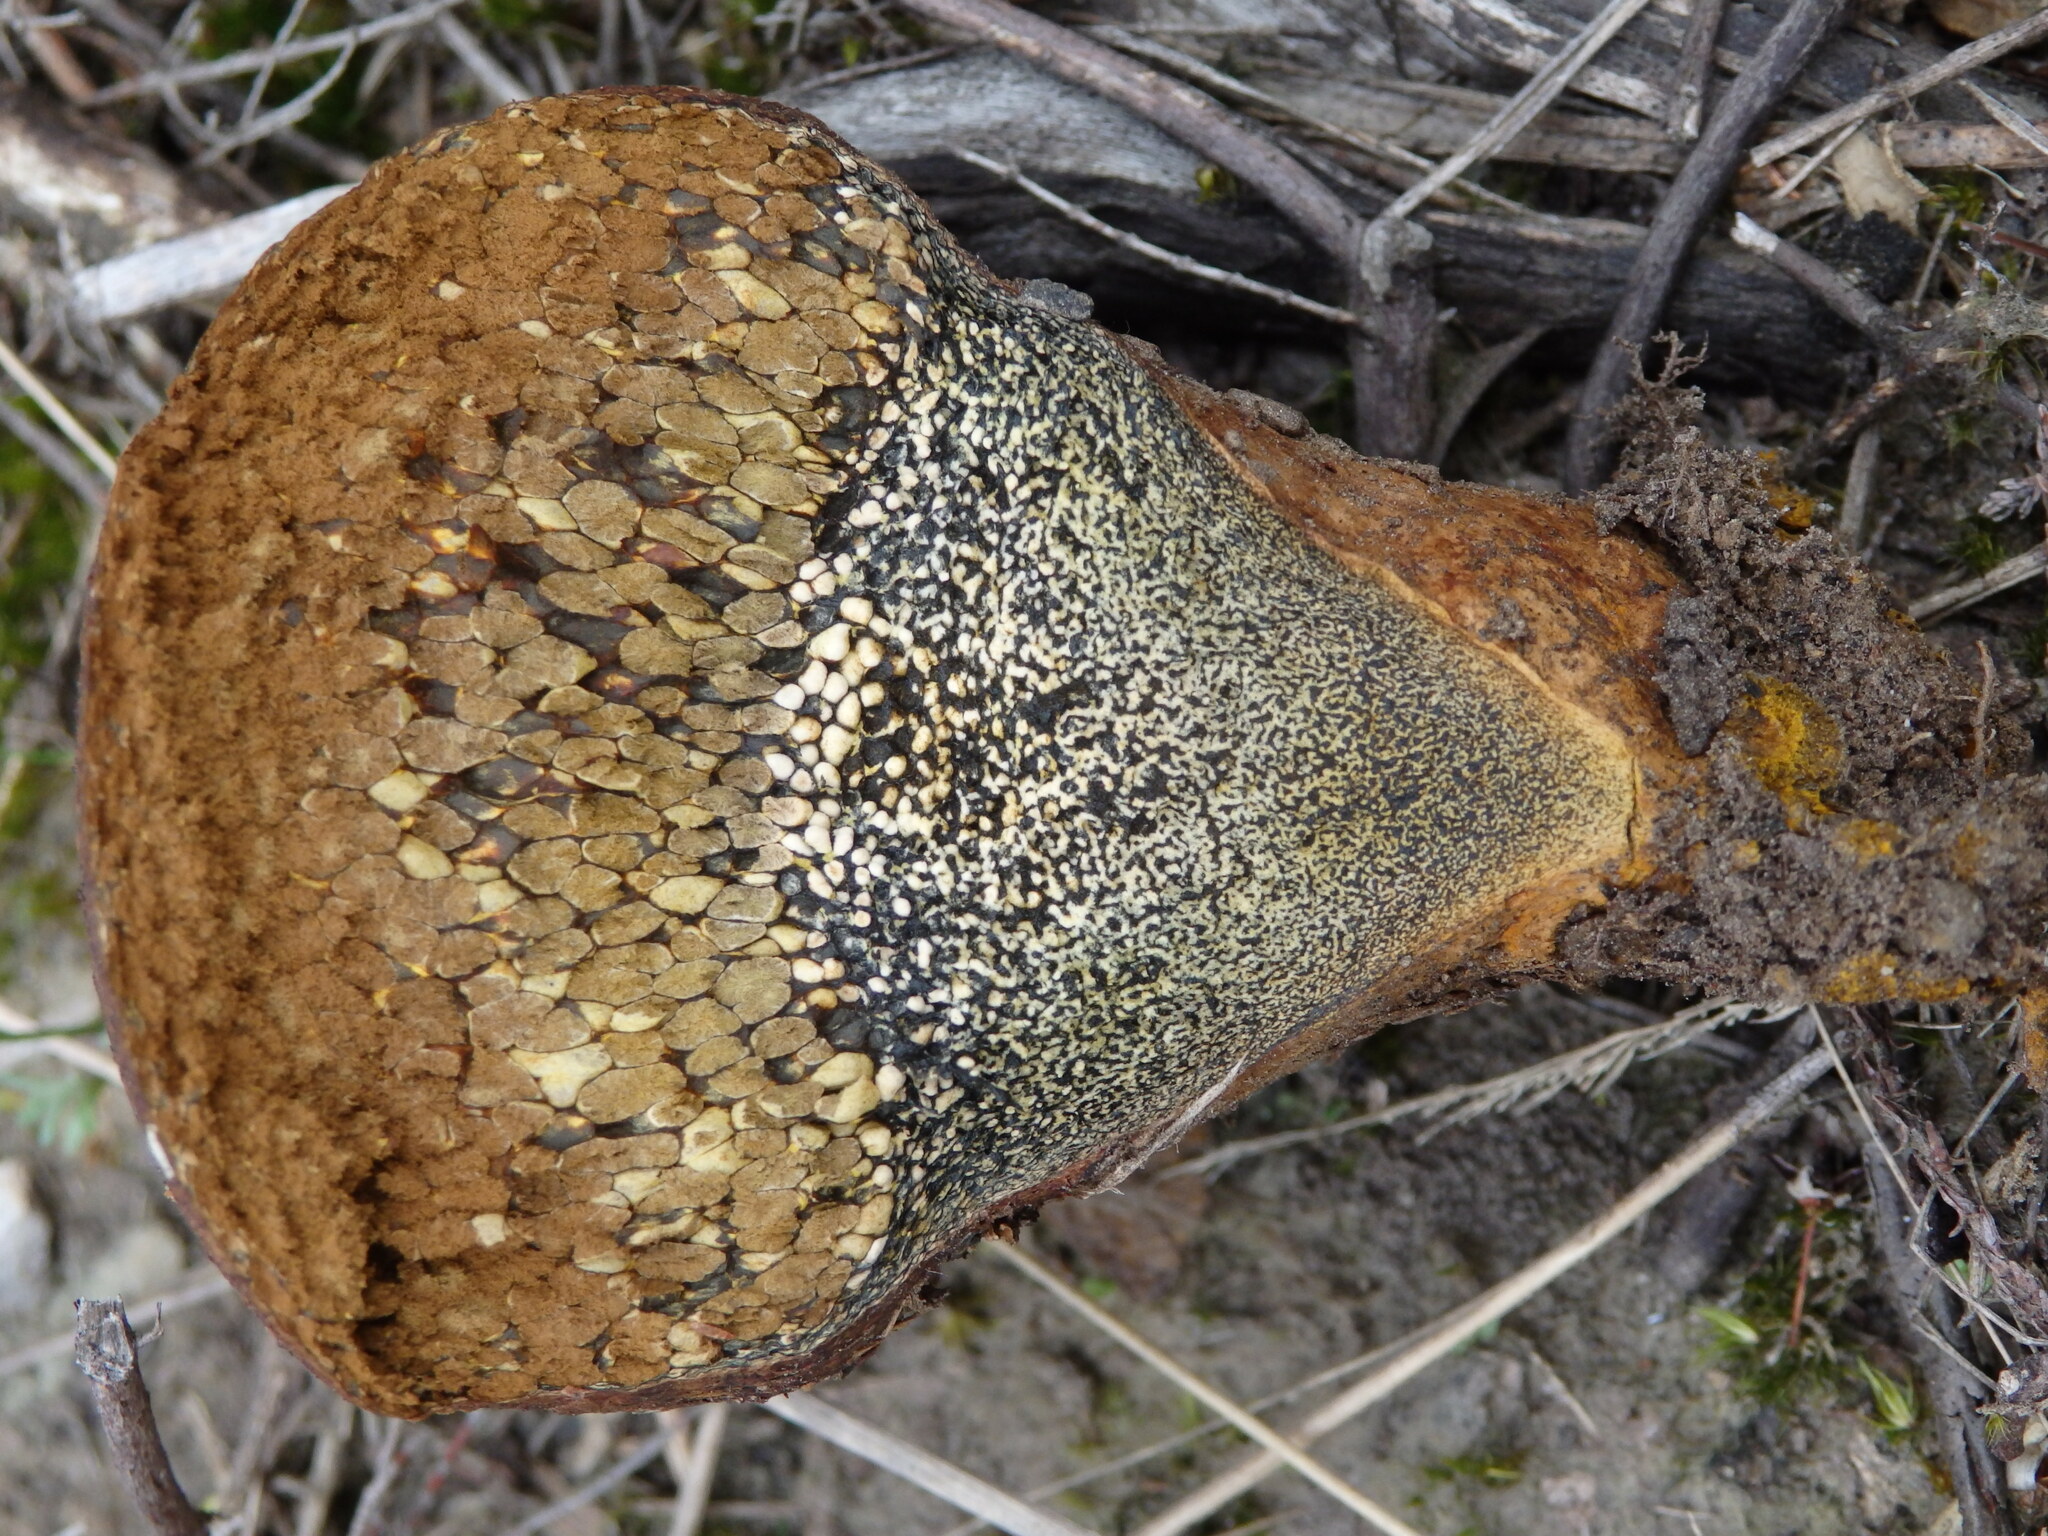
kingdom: Fungi
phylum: Basidiomycota
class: Agaricomycetes
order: Boletales
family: Sclerodermataceae
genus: Pisolithus
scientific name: Pisolithus arhizus
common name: Dyeball
